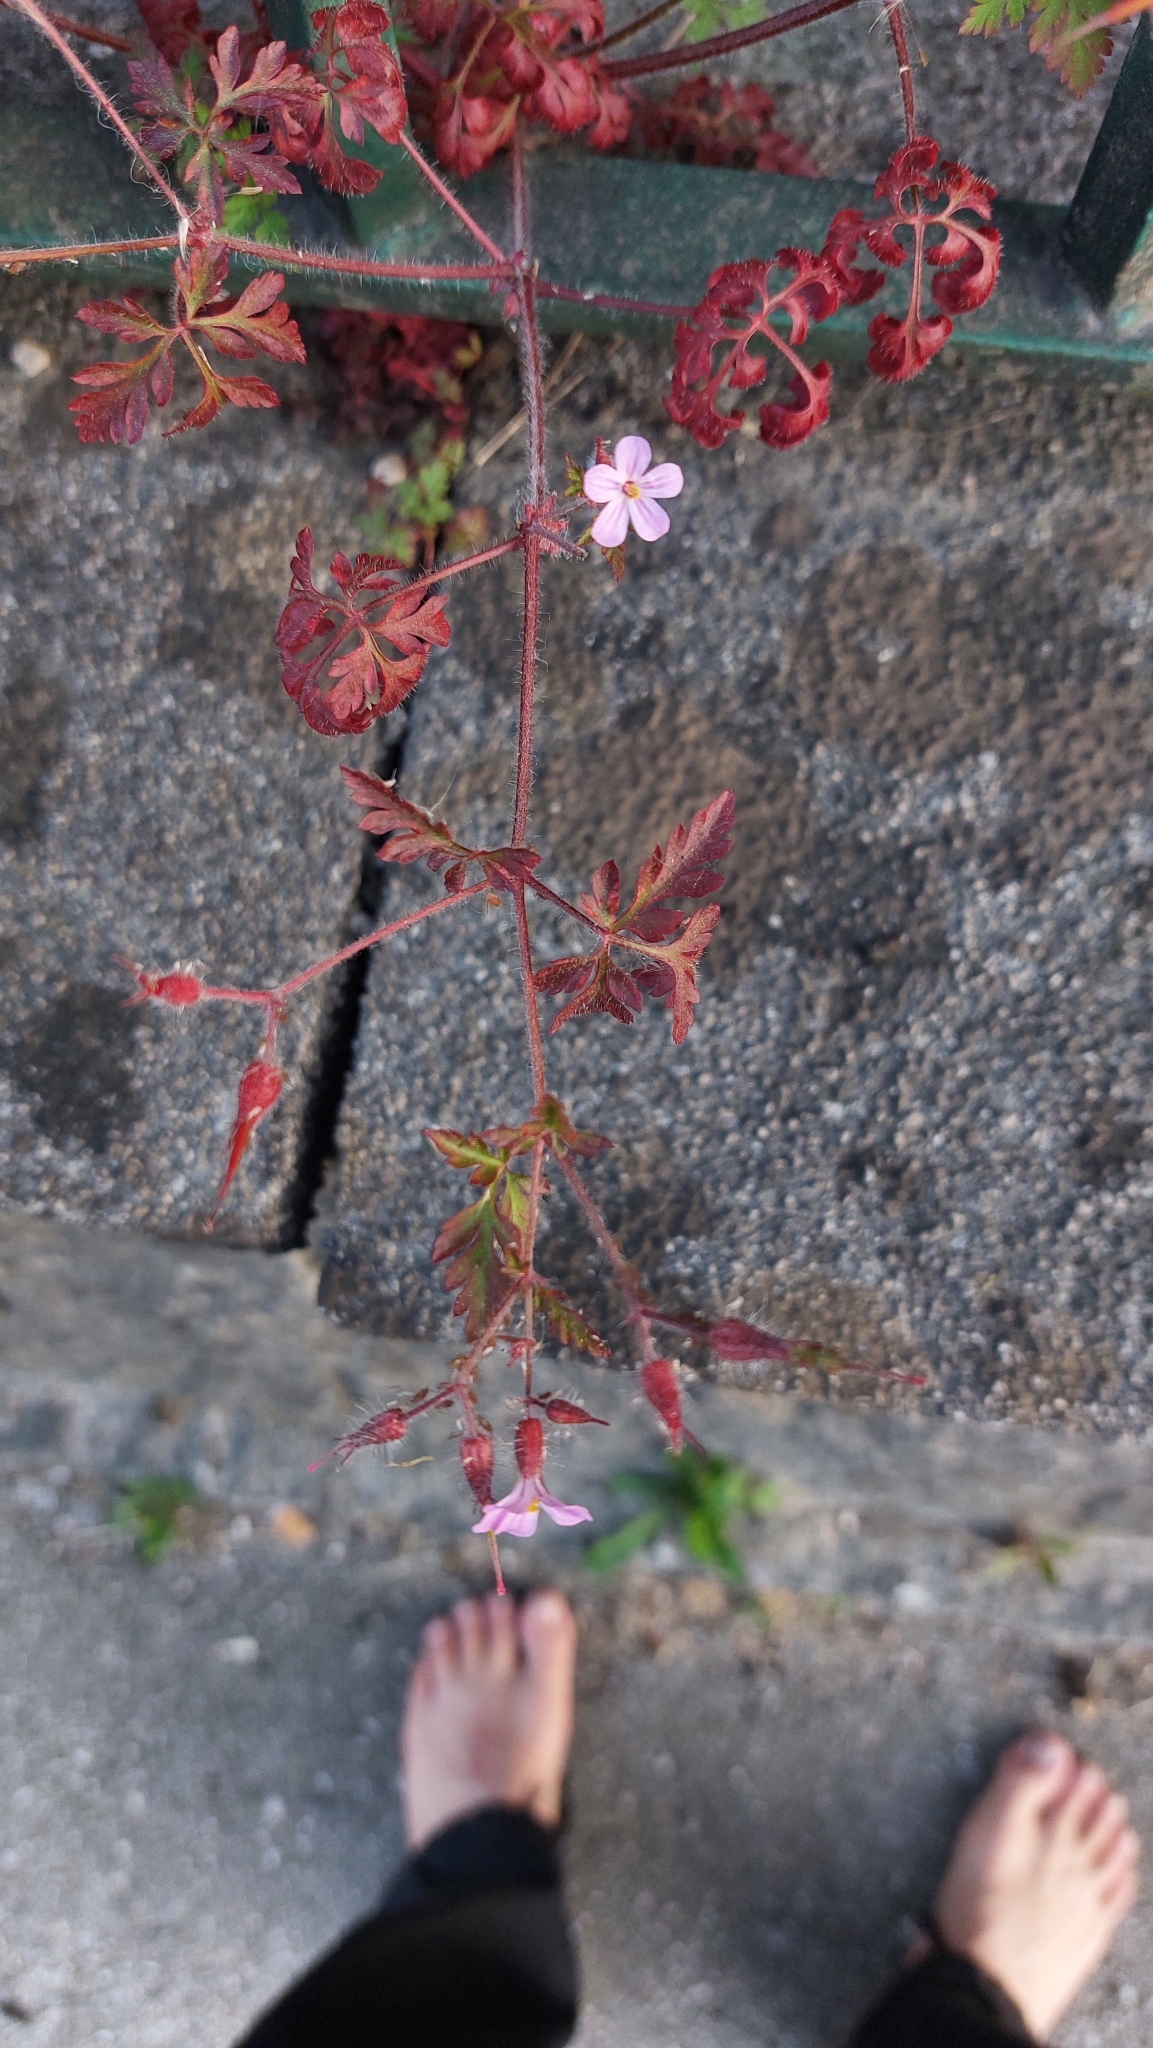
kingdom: Plantae
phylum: Tracheophyta
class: Magnoliopsida
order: Geraniales
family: Geraniaceae
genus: Geranium
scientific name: Geranium robertianum
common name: Herb-robert
